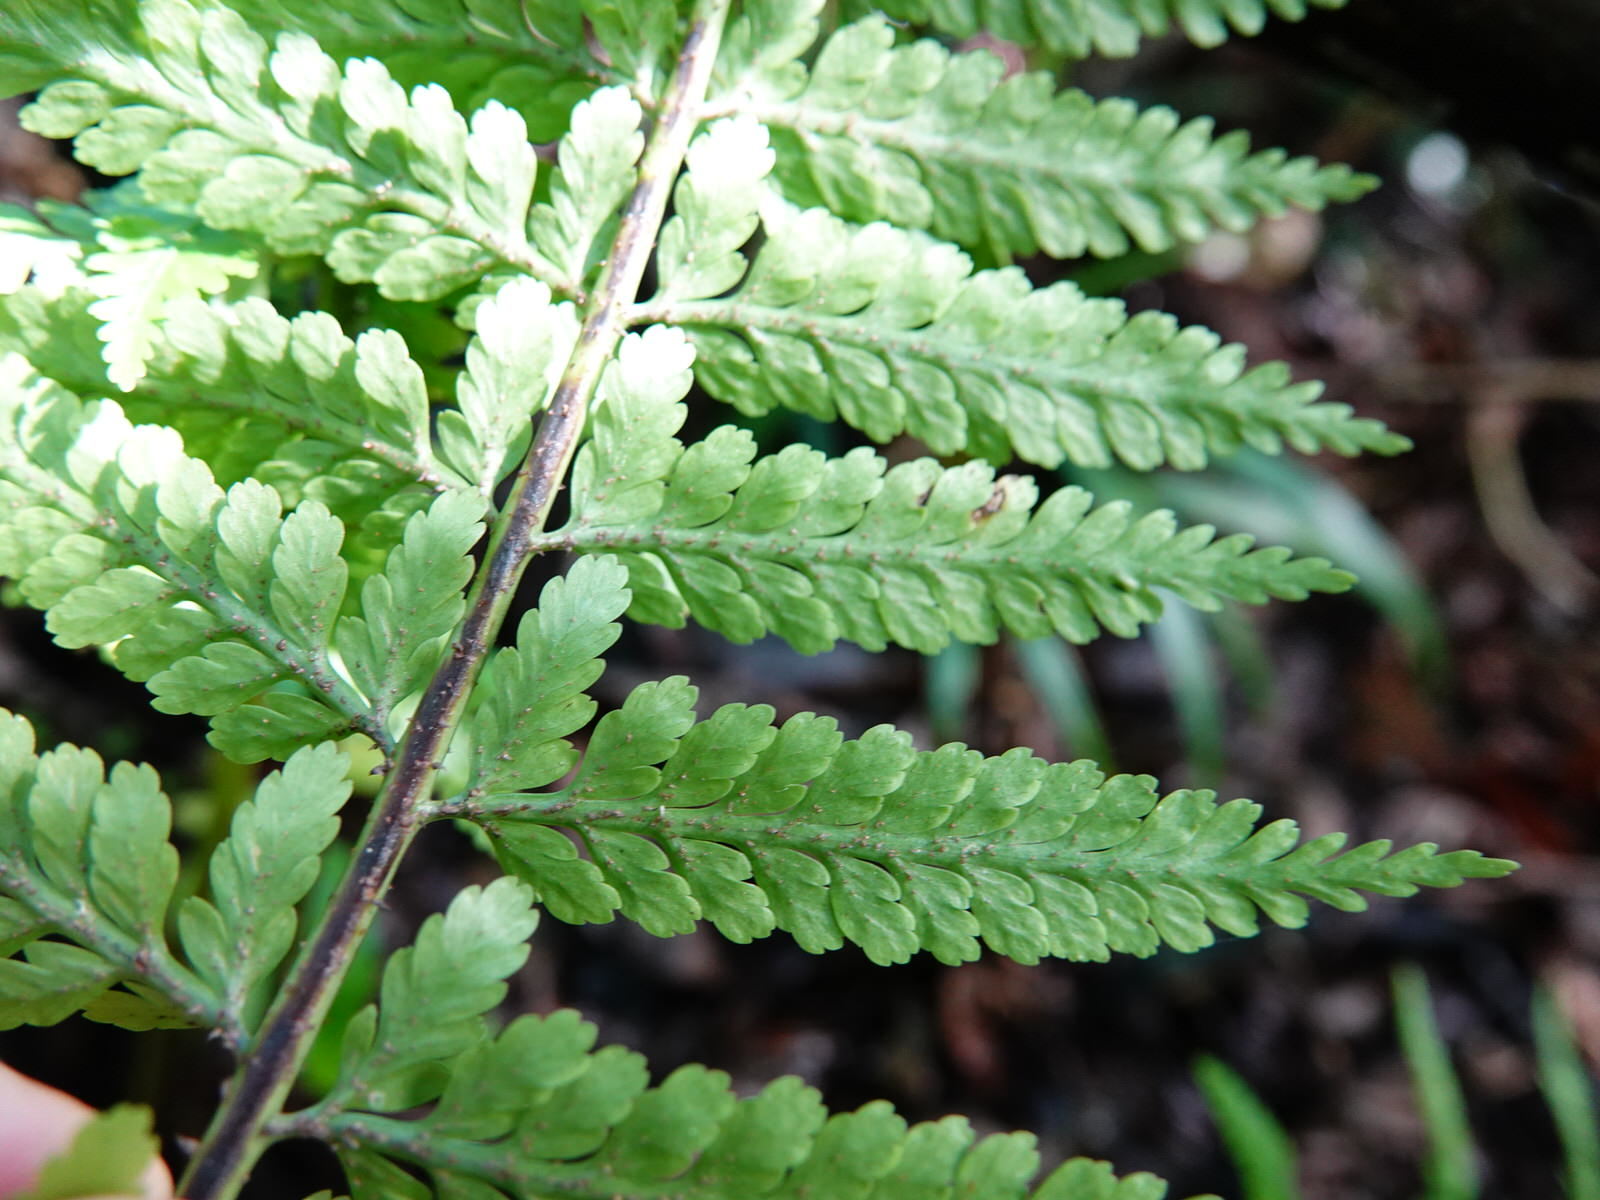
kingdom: Plantae
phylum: Tracheophyta
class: Polypodiopsida
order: Polypodiales
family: Aspleniaceae
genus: Asplenium
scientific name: Asplenium bulbiferum
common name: Mother fern
